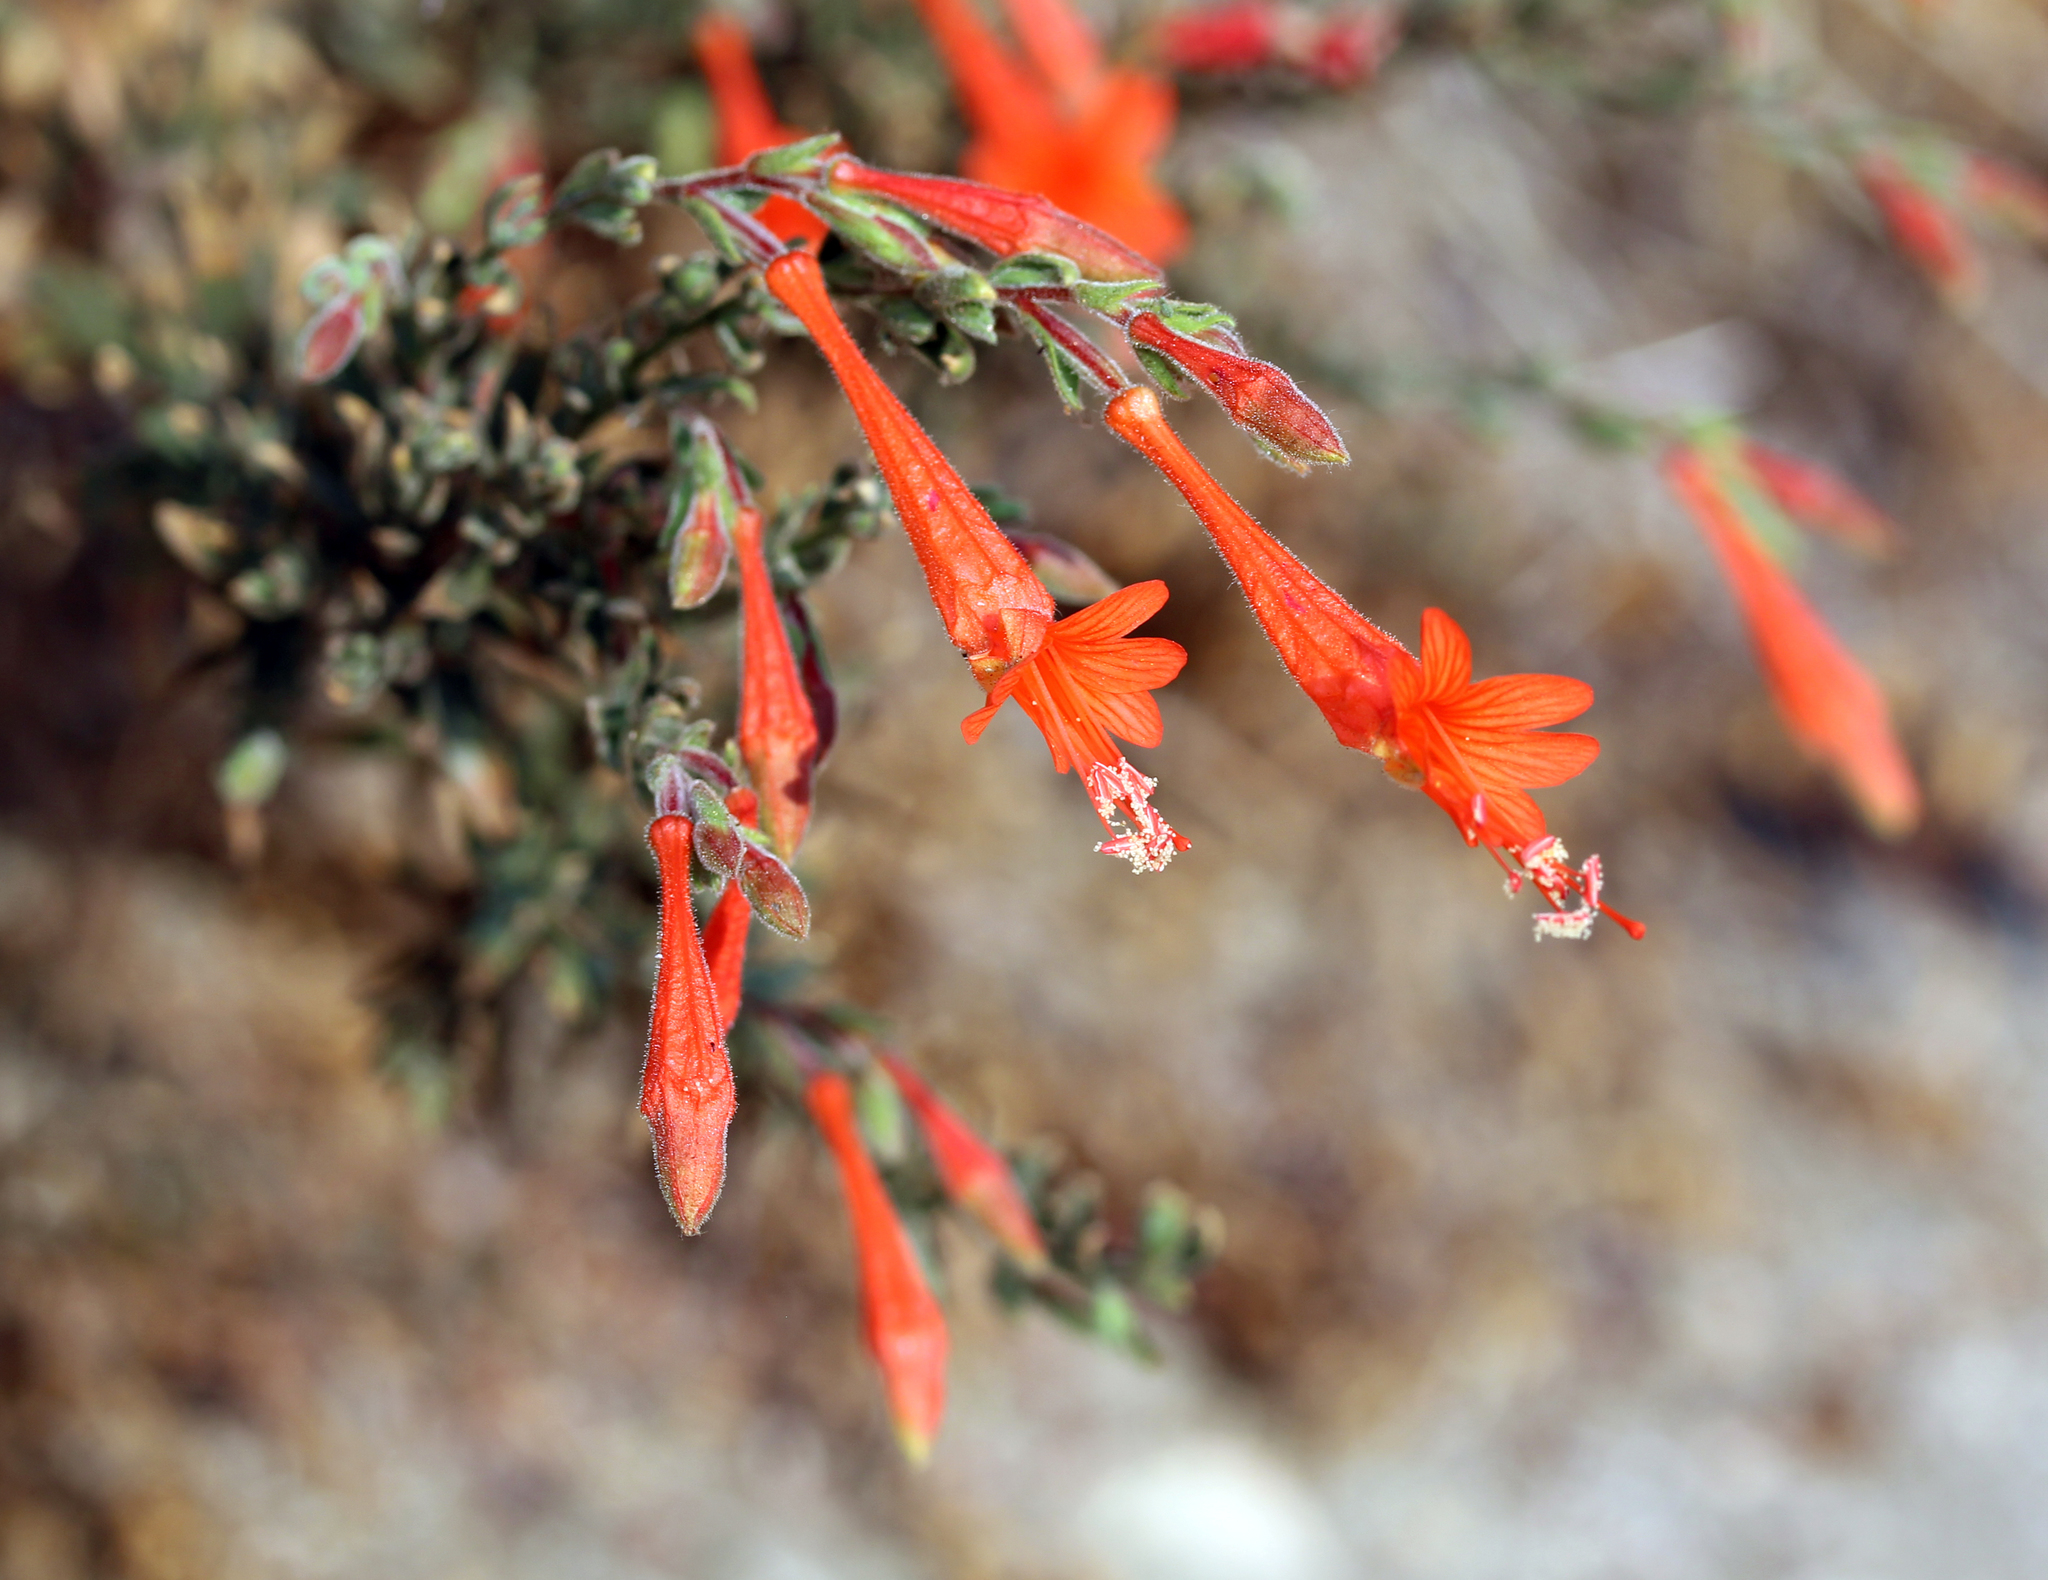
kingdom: Plantae
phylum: Tracheophyta
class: Magnoliopsida
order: Myrtales
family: Onagraceae
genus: Epilobium
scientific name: Epilobium canum
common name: California-fuchsia
